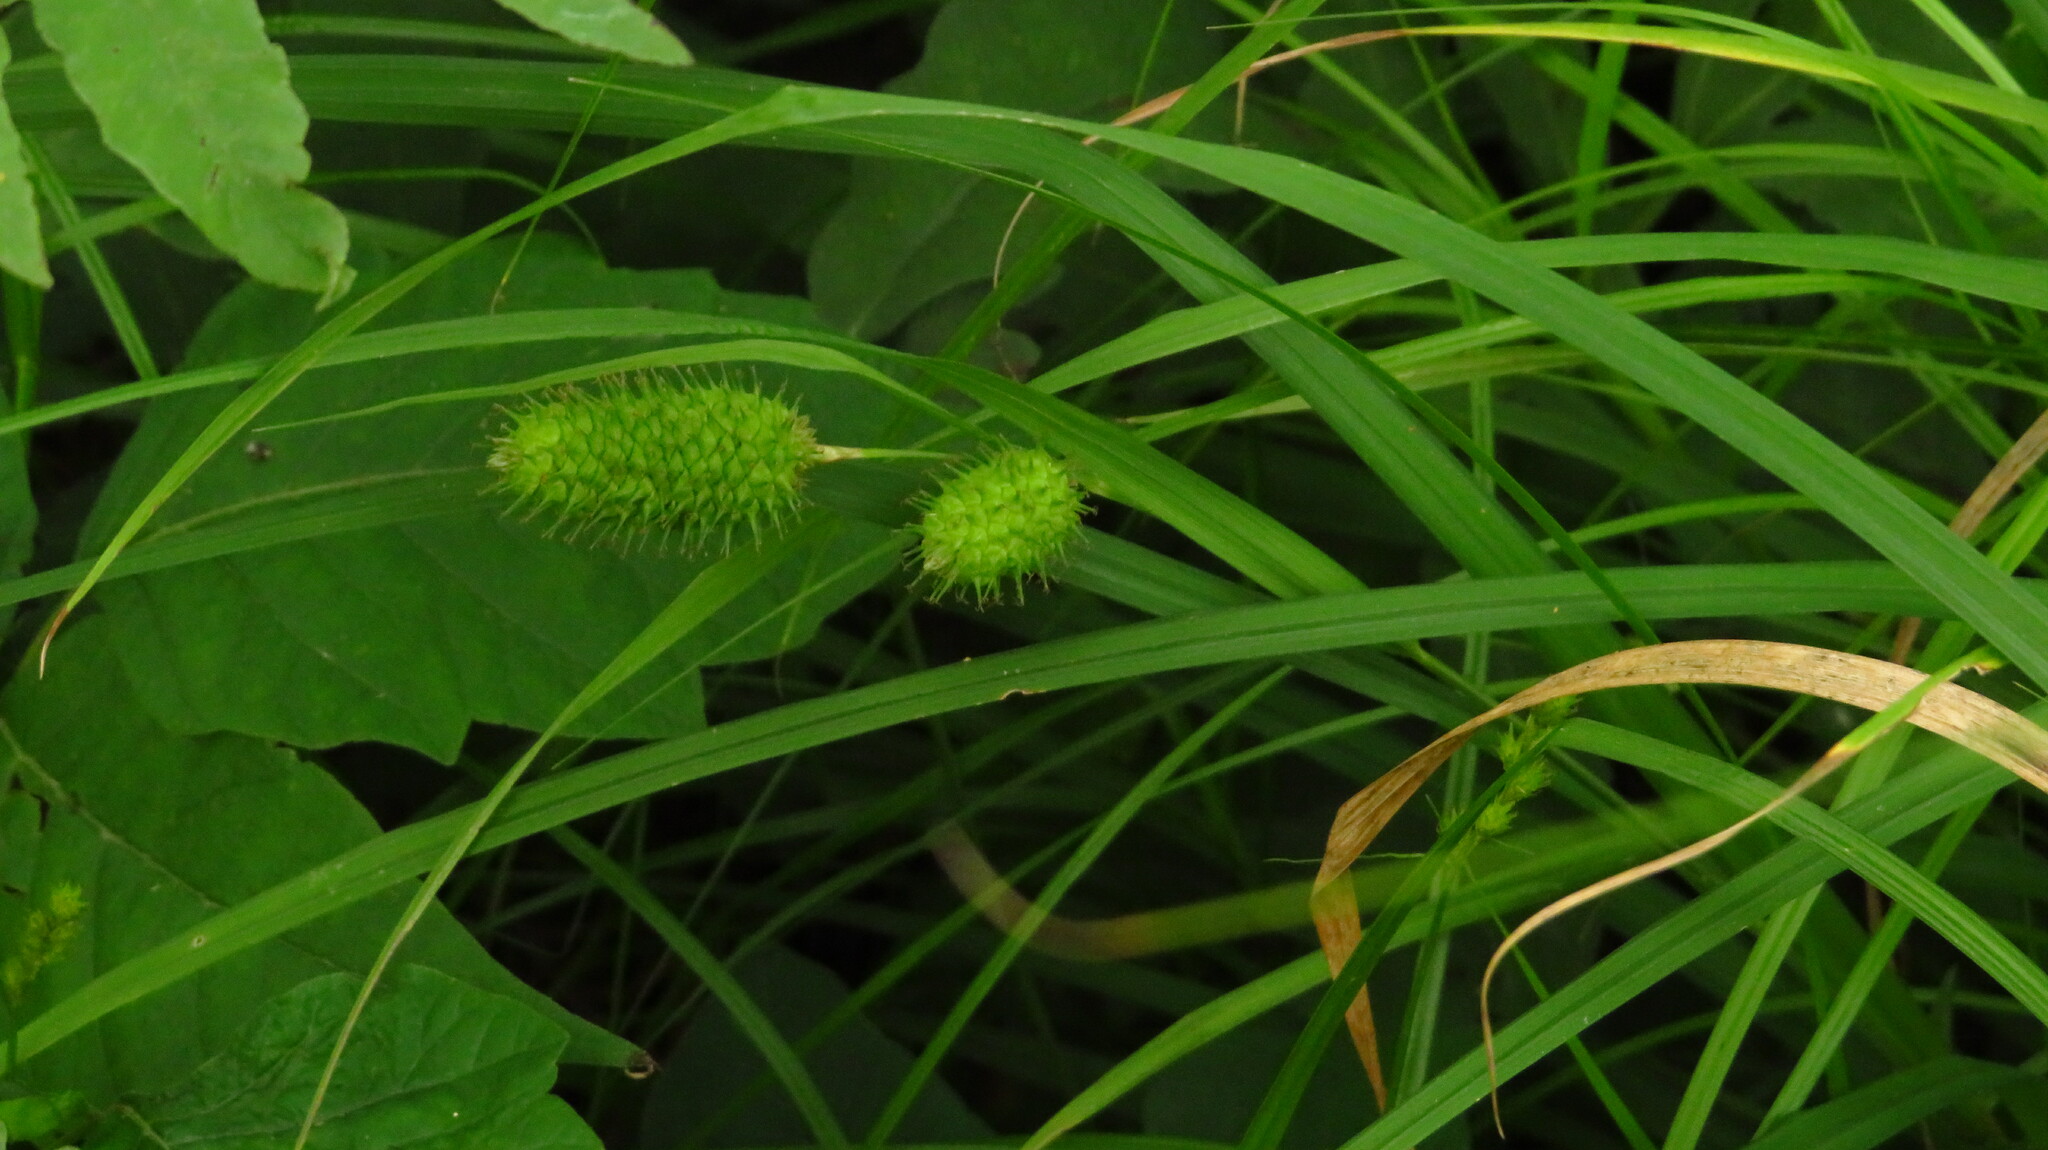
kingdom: Plantae
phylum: Tracheophyta
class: Liliopsida
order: Poales
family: Cyperaceae
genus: Carex
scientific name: Carex typhina
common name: Cattail sedge
